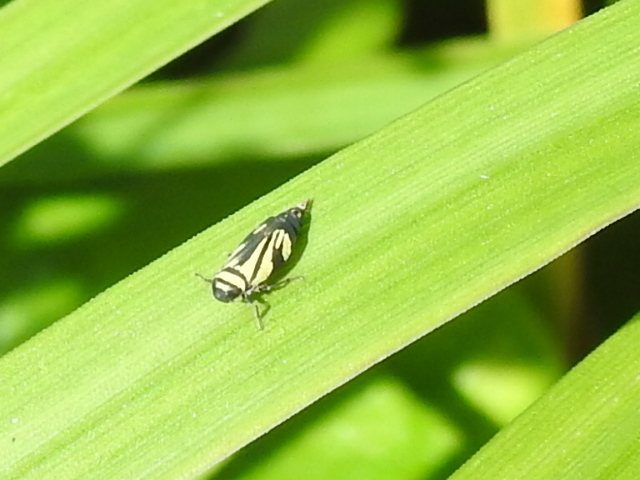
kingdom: Animalia
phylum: Arthropoda
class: Insecta
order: Hemiptera
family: Cicadellidae
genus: Stirellus
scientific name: Stirellus bicolor
